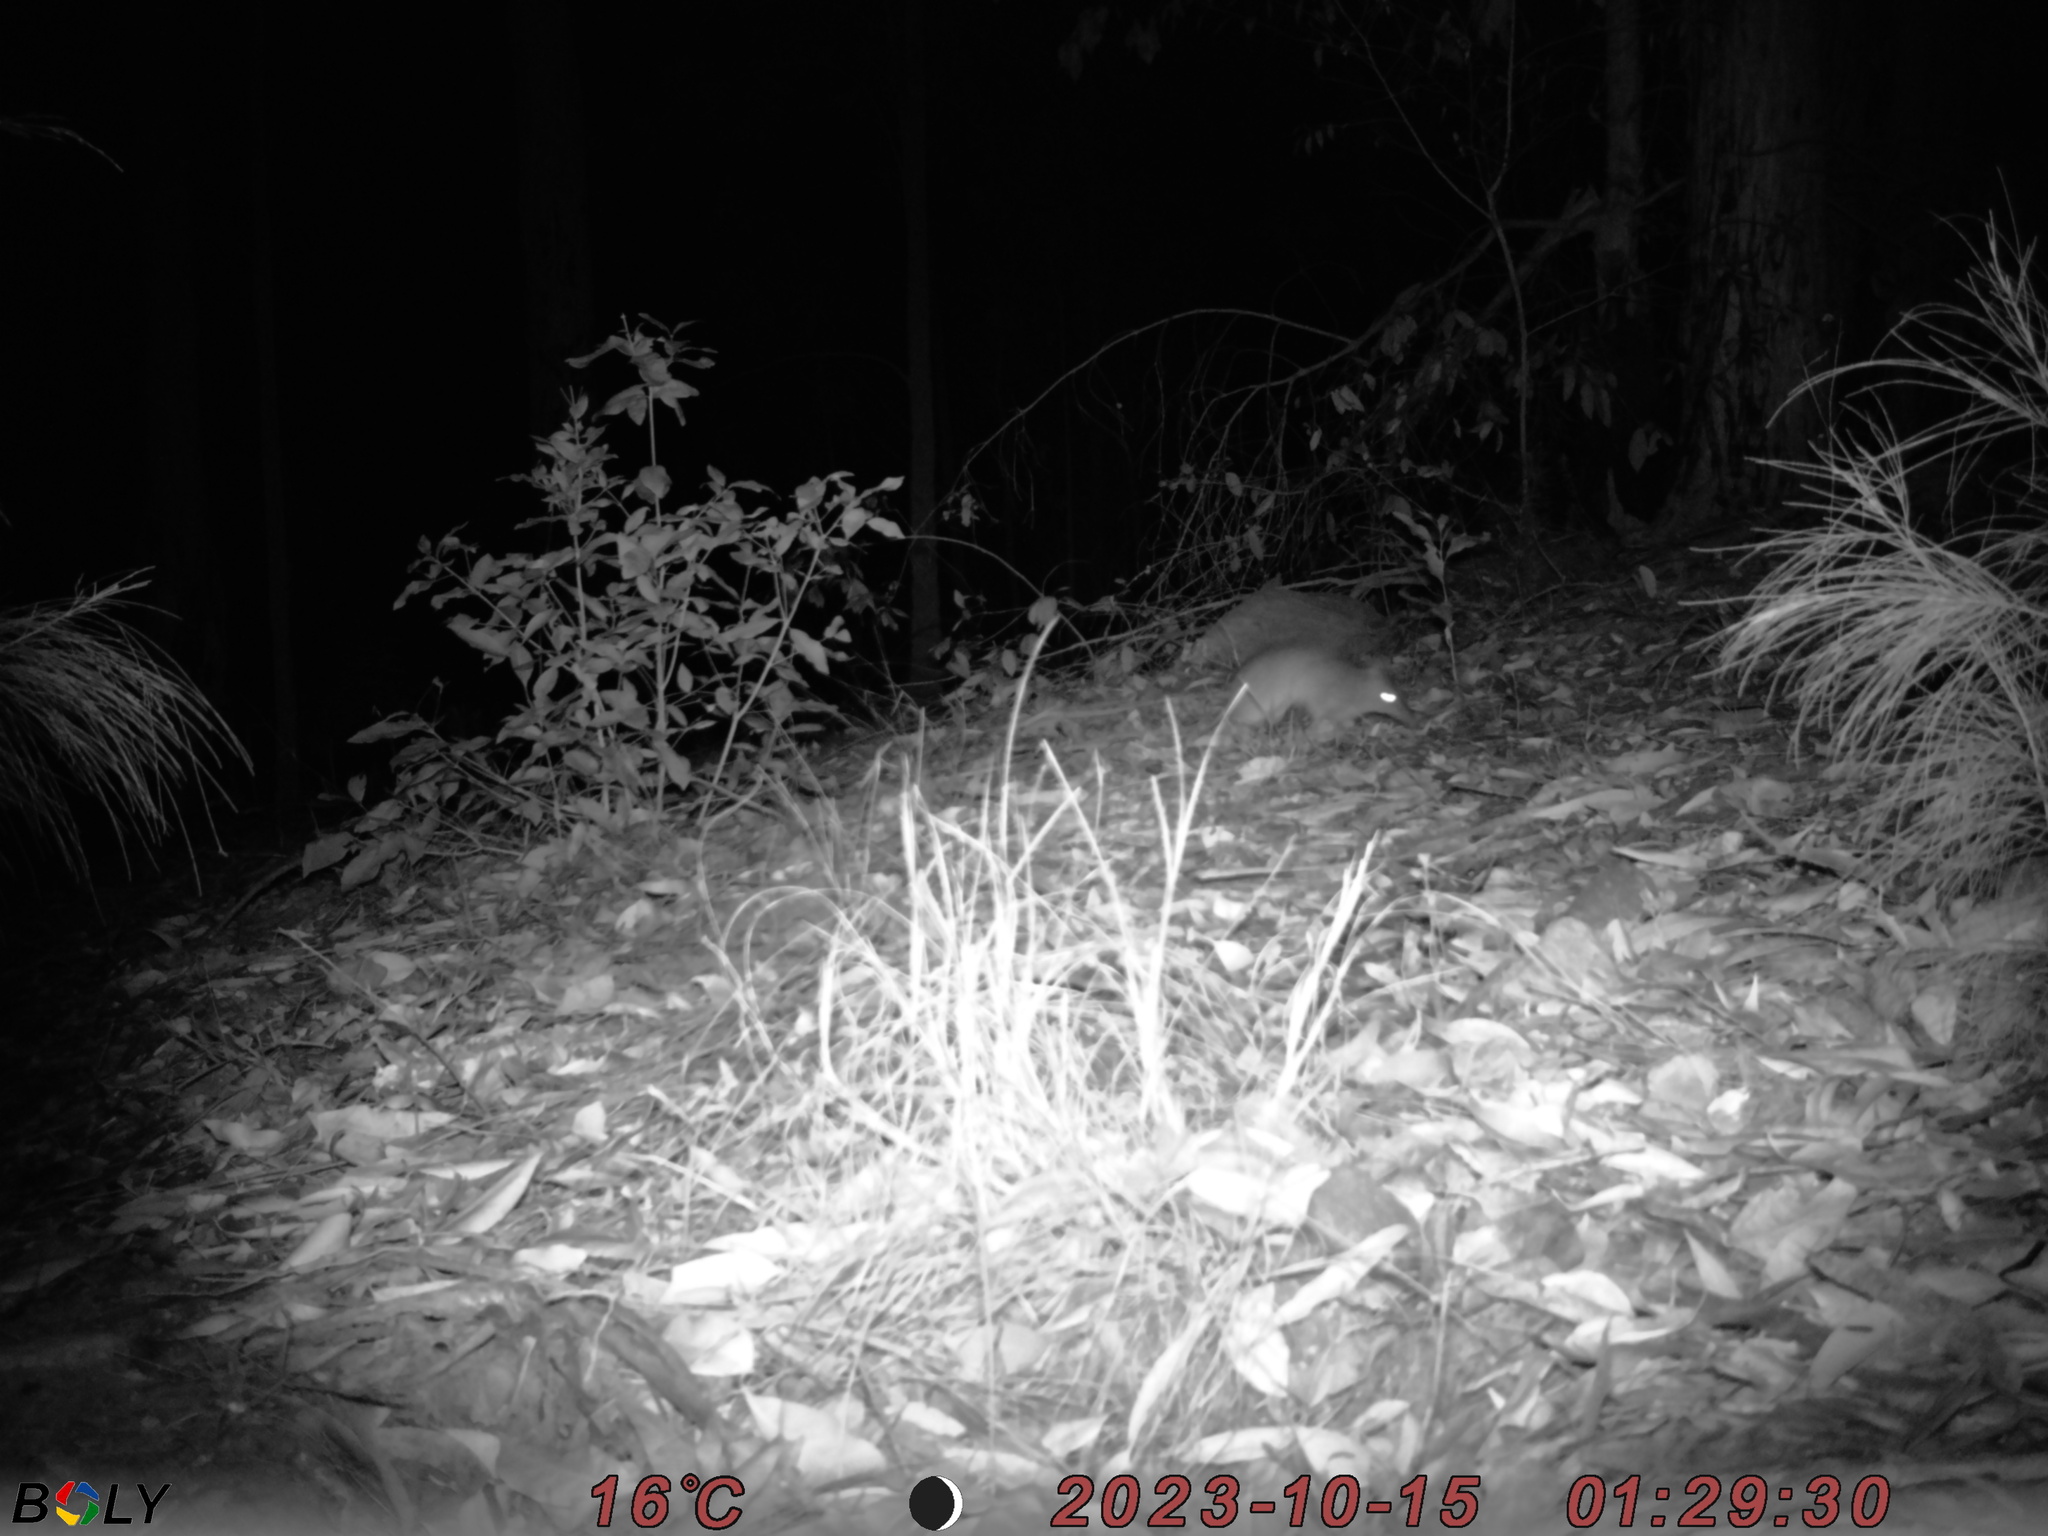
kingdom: Animalia
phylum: Chordata
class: Mammalia
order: Peramelemorphia
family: Peramelidae
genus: Perameles
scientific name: Perameles nasuta
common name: Long-nosed bandicoot
